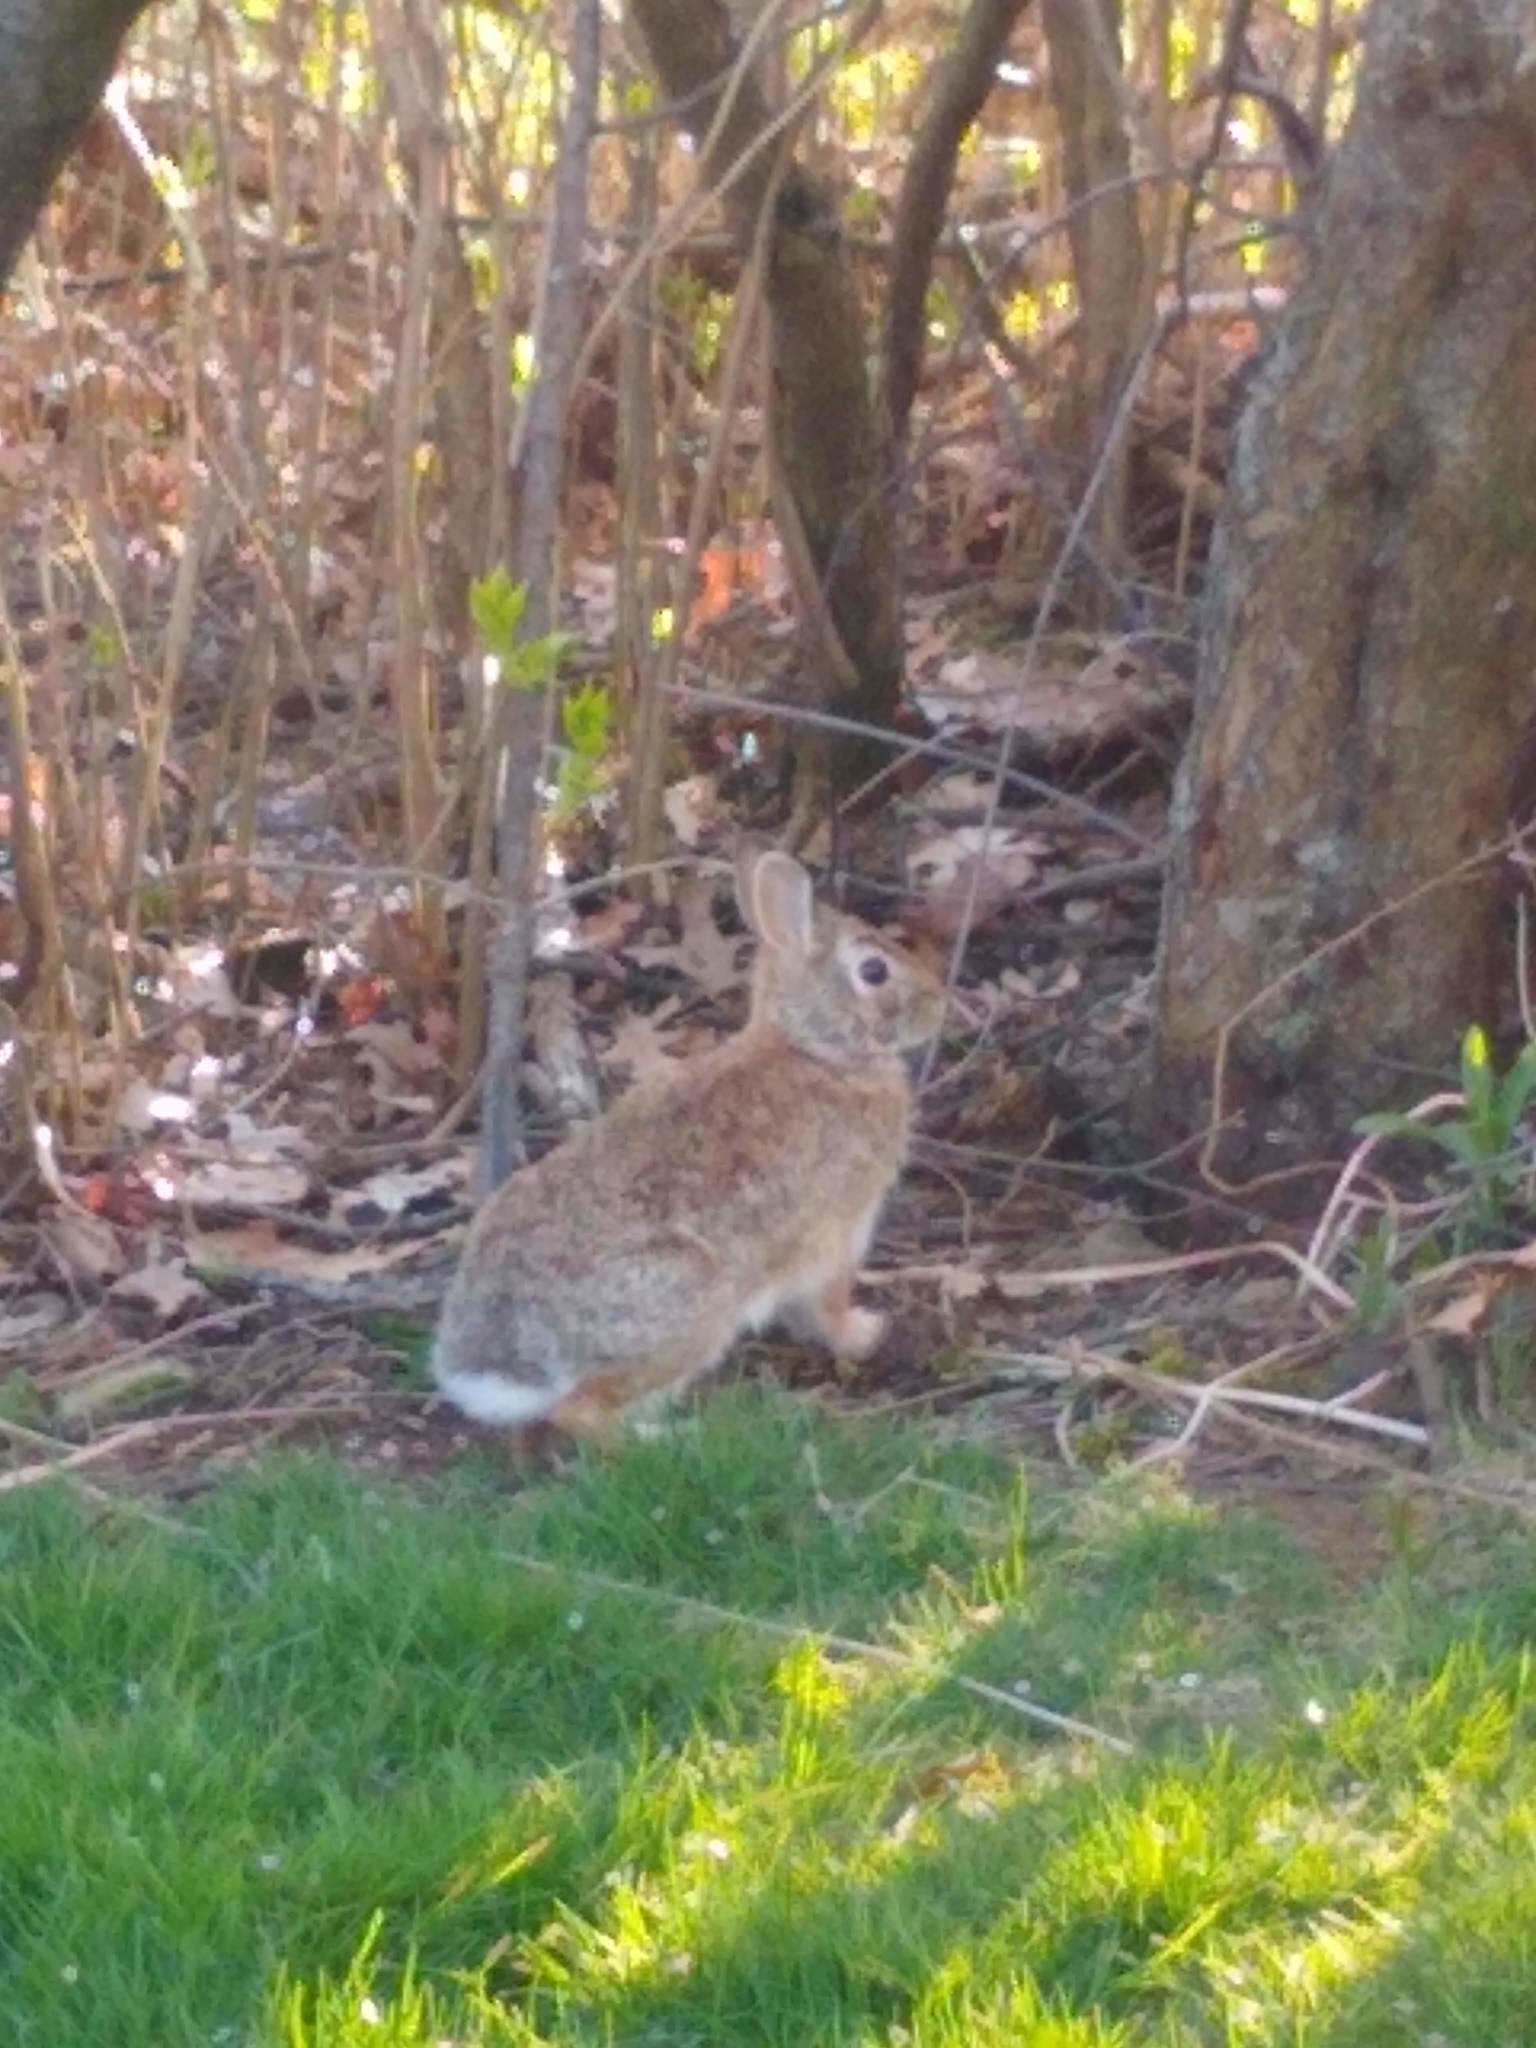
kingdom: Animalia
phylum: Chordata
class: Mammalia
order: Lagomorpha
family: Leporidae
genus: Sylvilagus
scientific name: Sylvilagus floridanus
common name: Eastern cottontail
